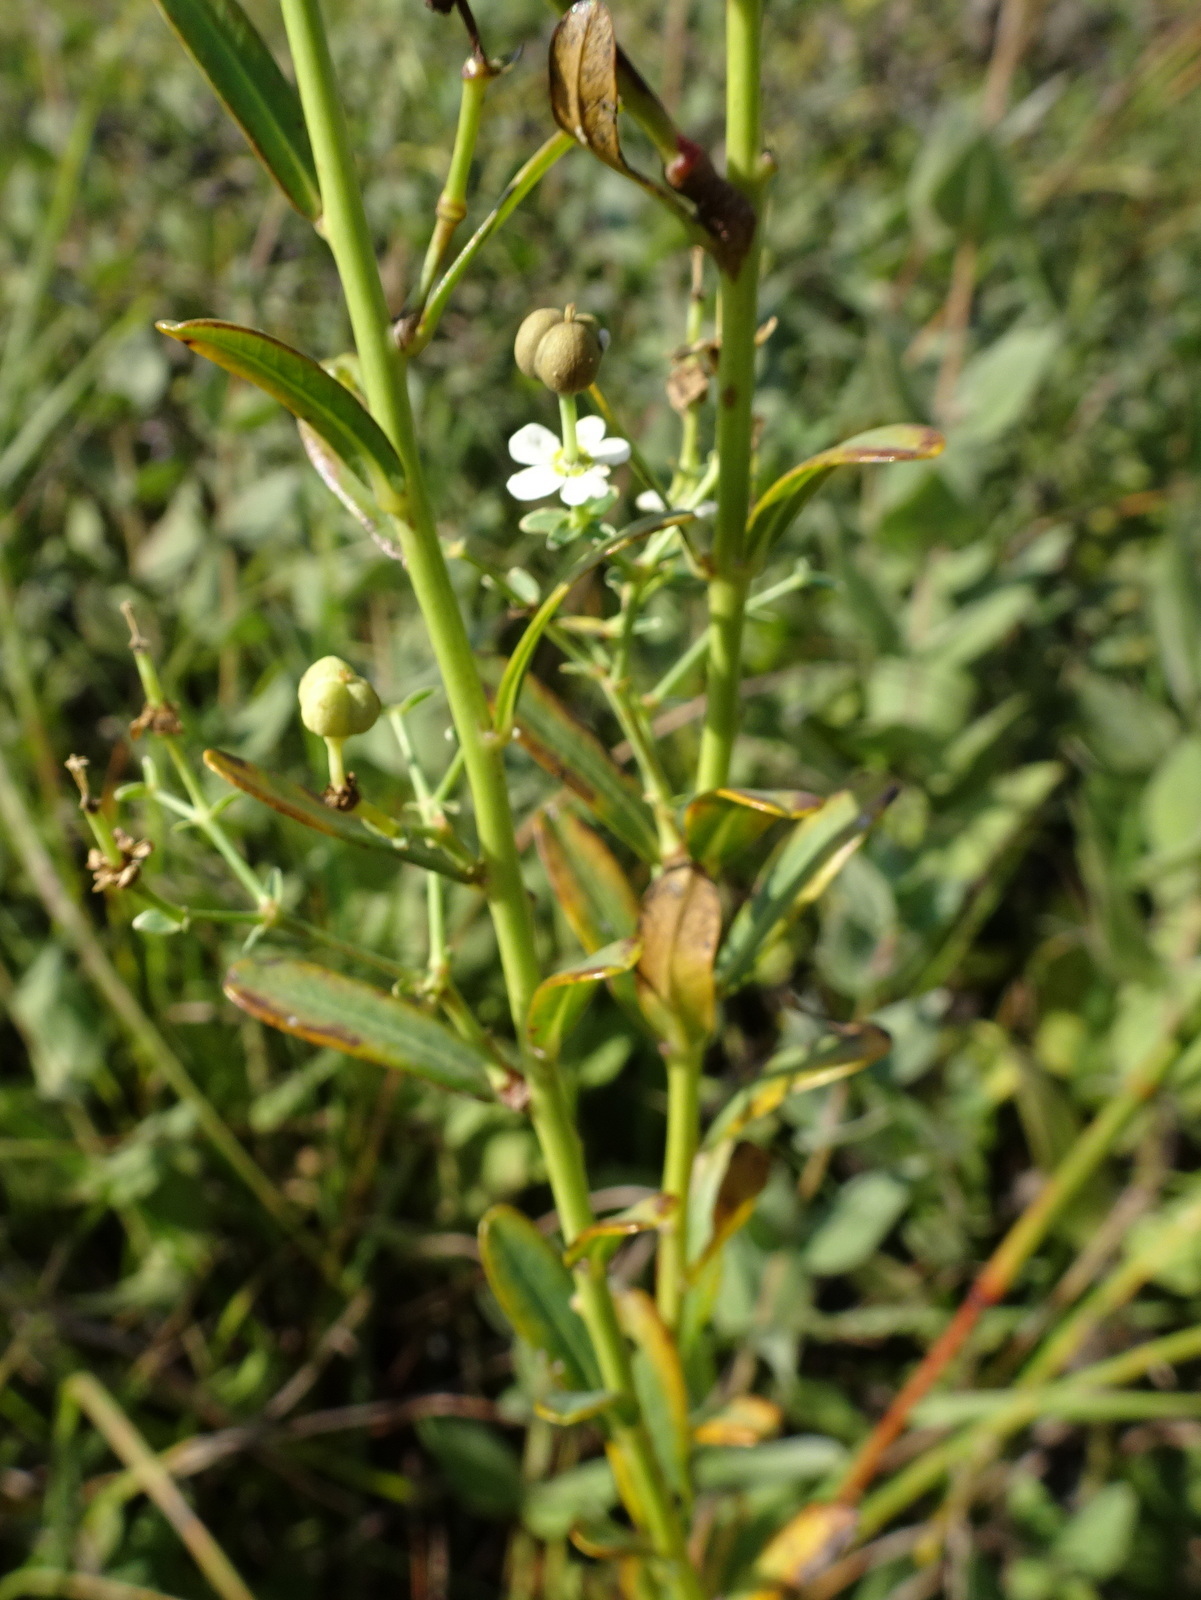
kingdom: Plantae
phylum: Tracheophyta
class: Magnoliopsida
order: Malpighiales
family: Euphorbiaceae
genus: Euphorbia
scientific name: Euphorbia corollata
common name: Flowering spurge
